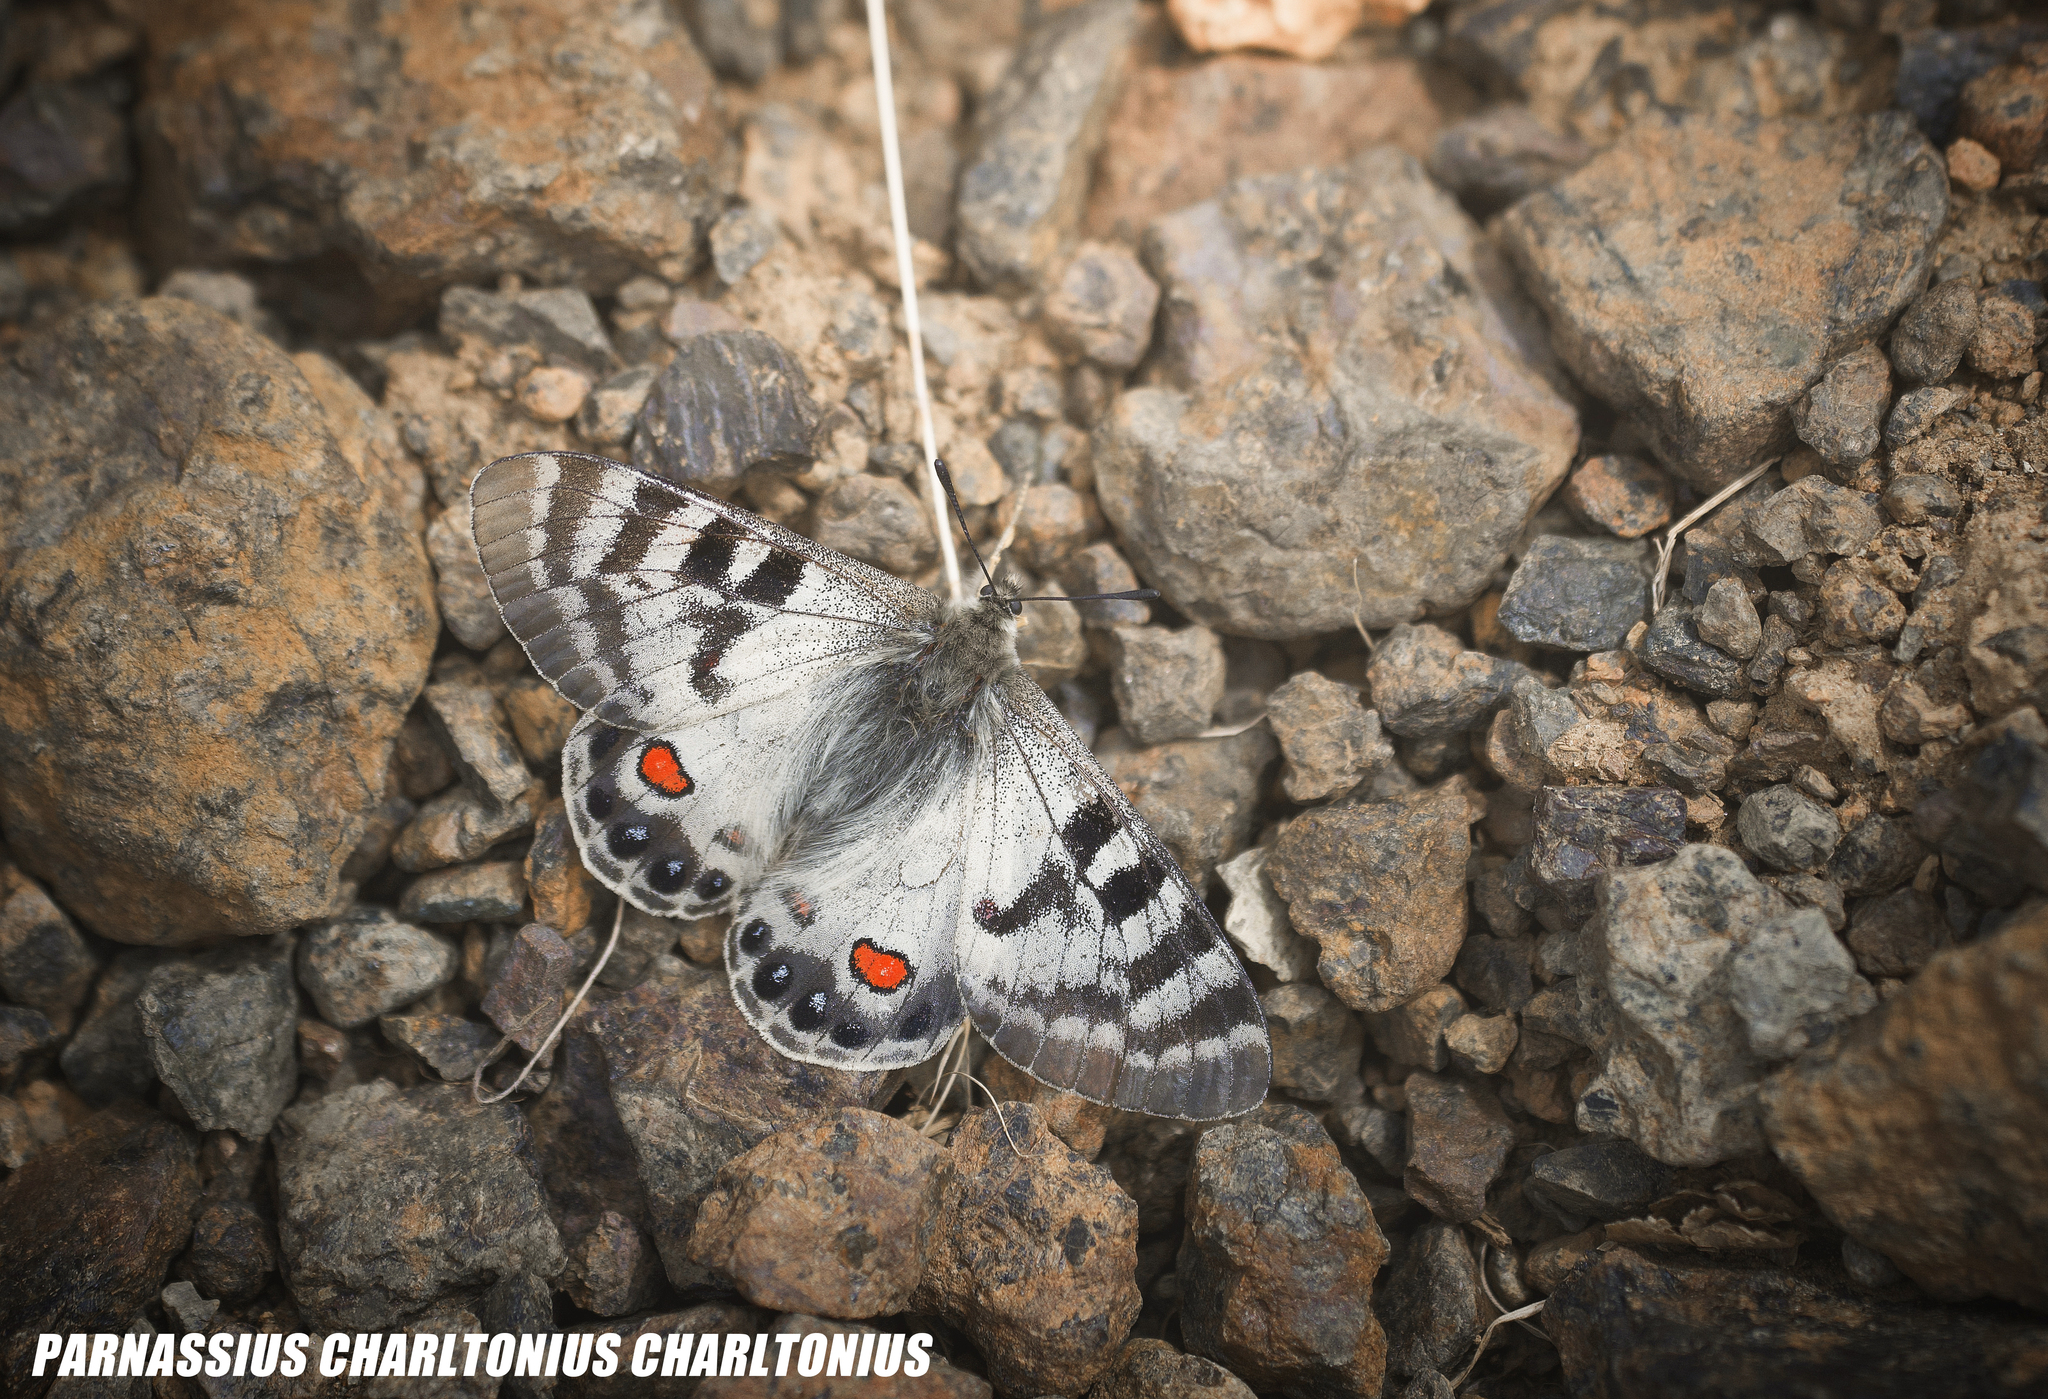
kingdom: Animalia
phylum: Arthropoda
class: Insecta
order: Lepidoptera
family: Papilionidae
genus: Parnassius
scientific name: Parnassius charltonius
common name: Regal apollo
